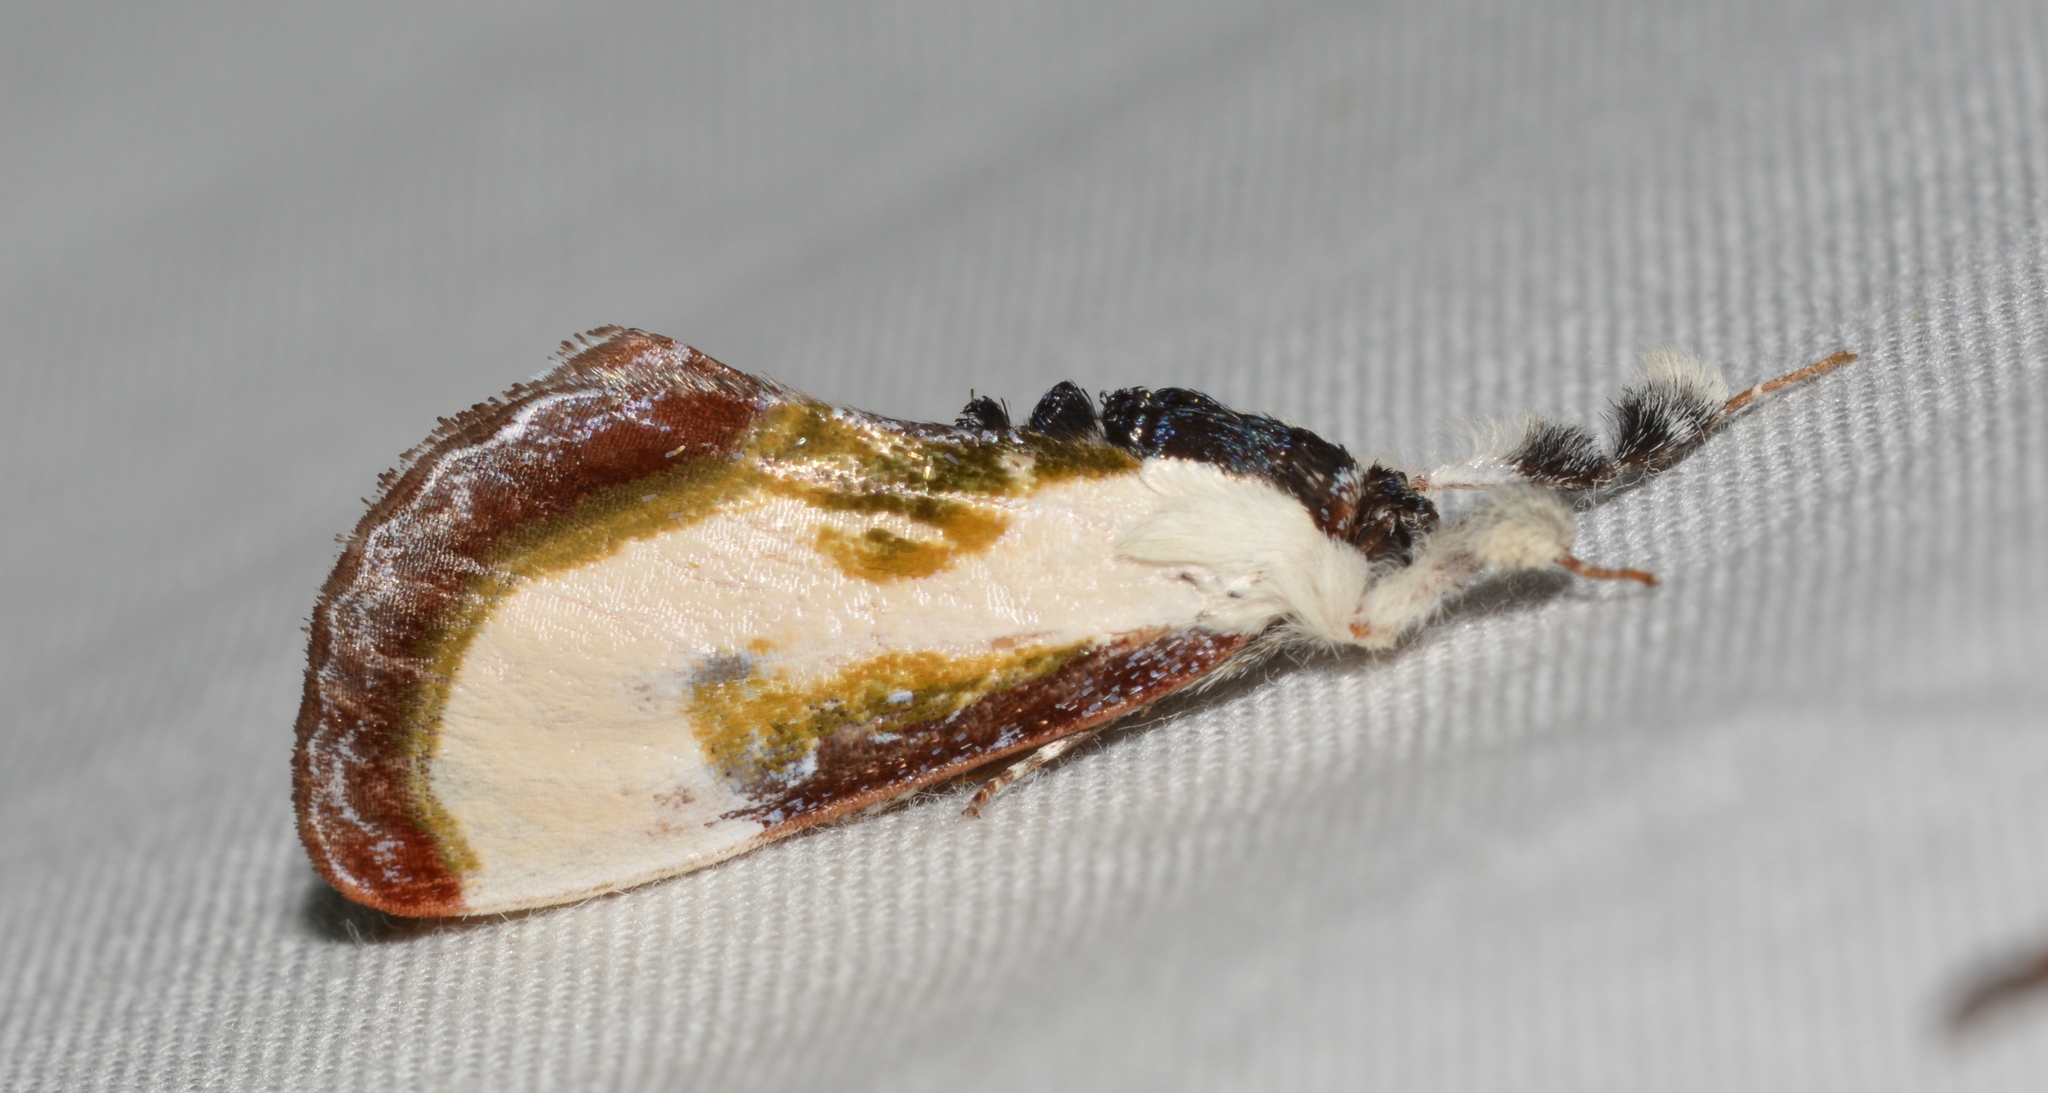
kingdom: Animalia
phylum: Arthropoda
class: Insecta
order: Lepidoptera
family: Noctuidae
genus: Eudryas
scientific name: Eudryas grata
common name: Beautiful wood-nymph
